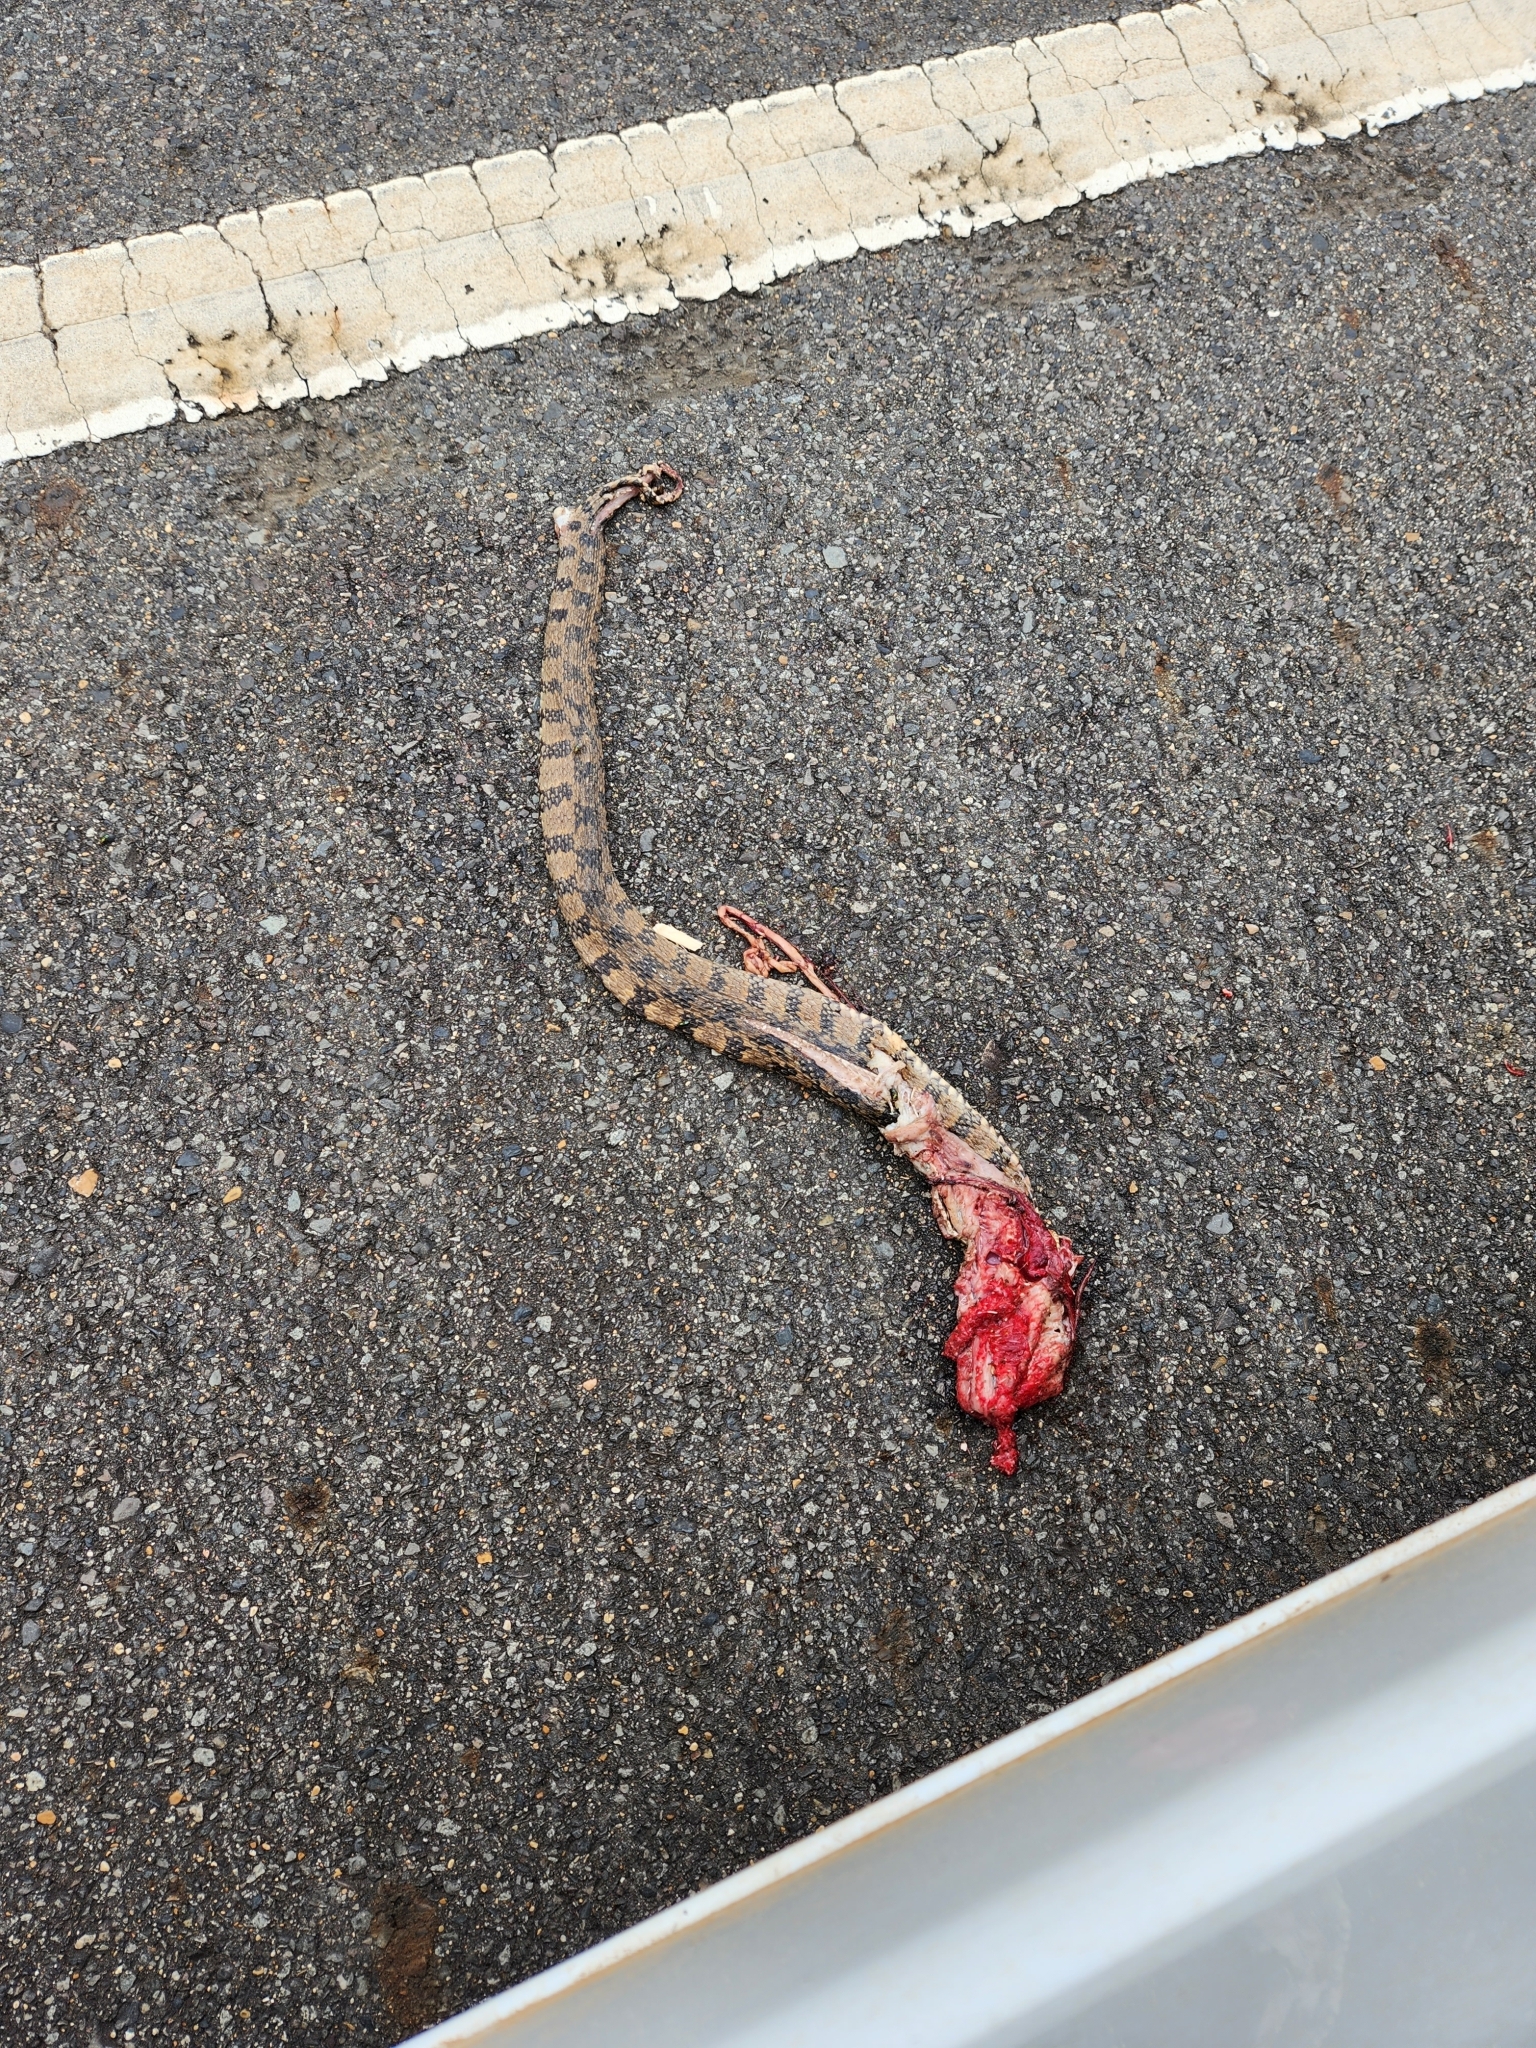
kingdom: Animalia
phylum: Chordata
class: Squamata
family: Colubridae
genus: Nerodia
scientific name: Nerodia rhombifer
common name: Diamondback water snake
